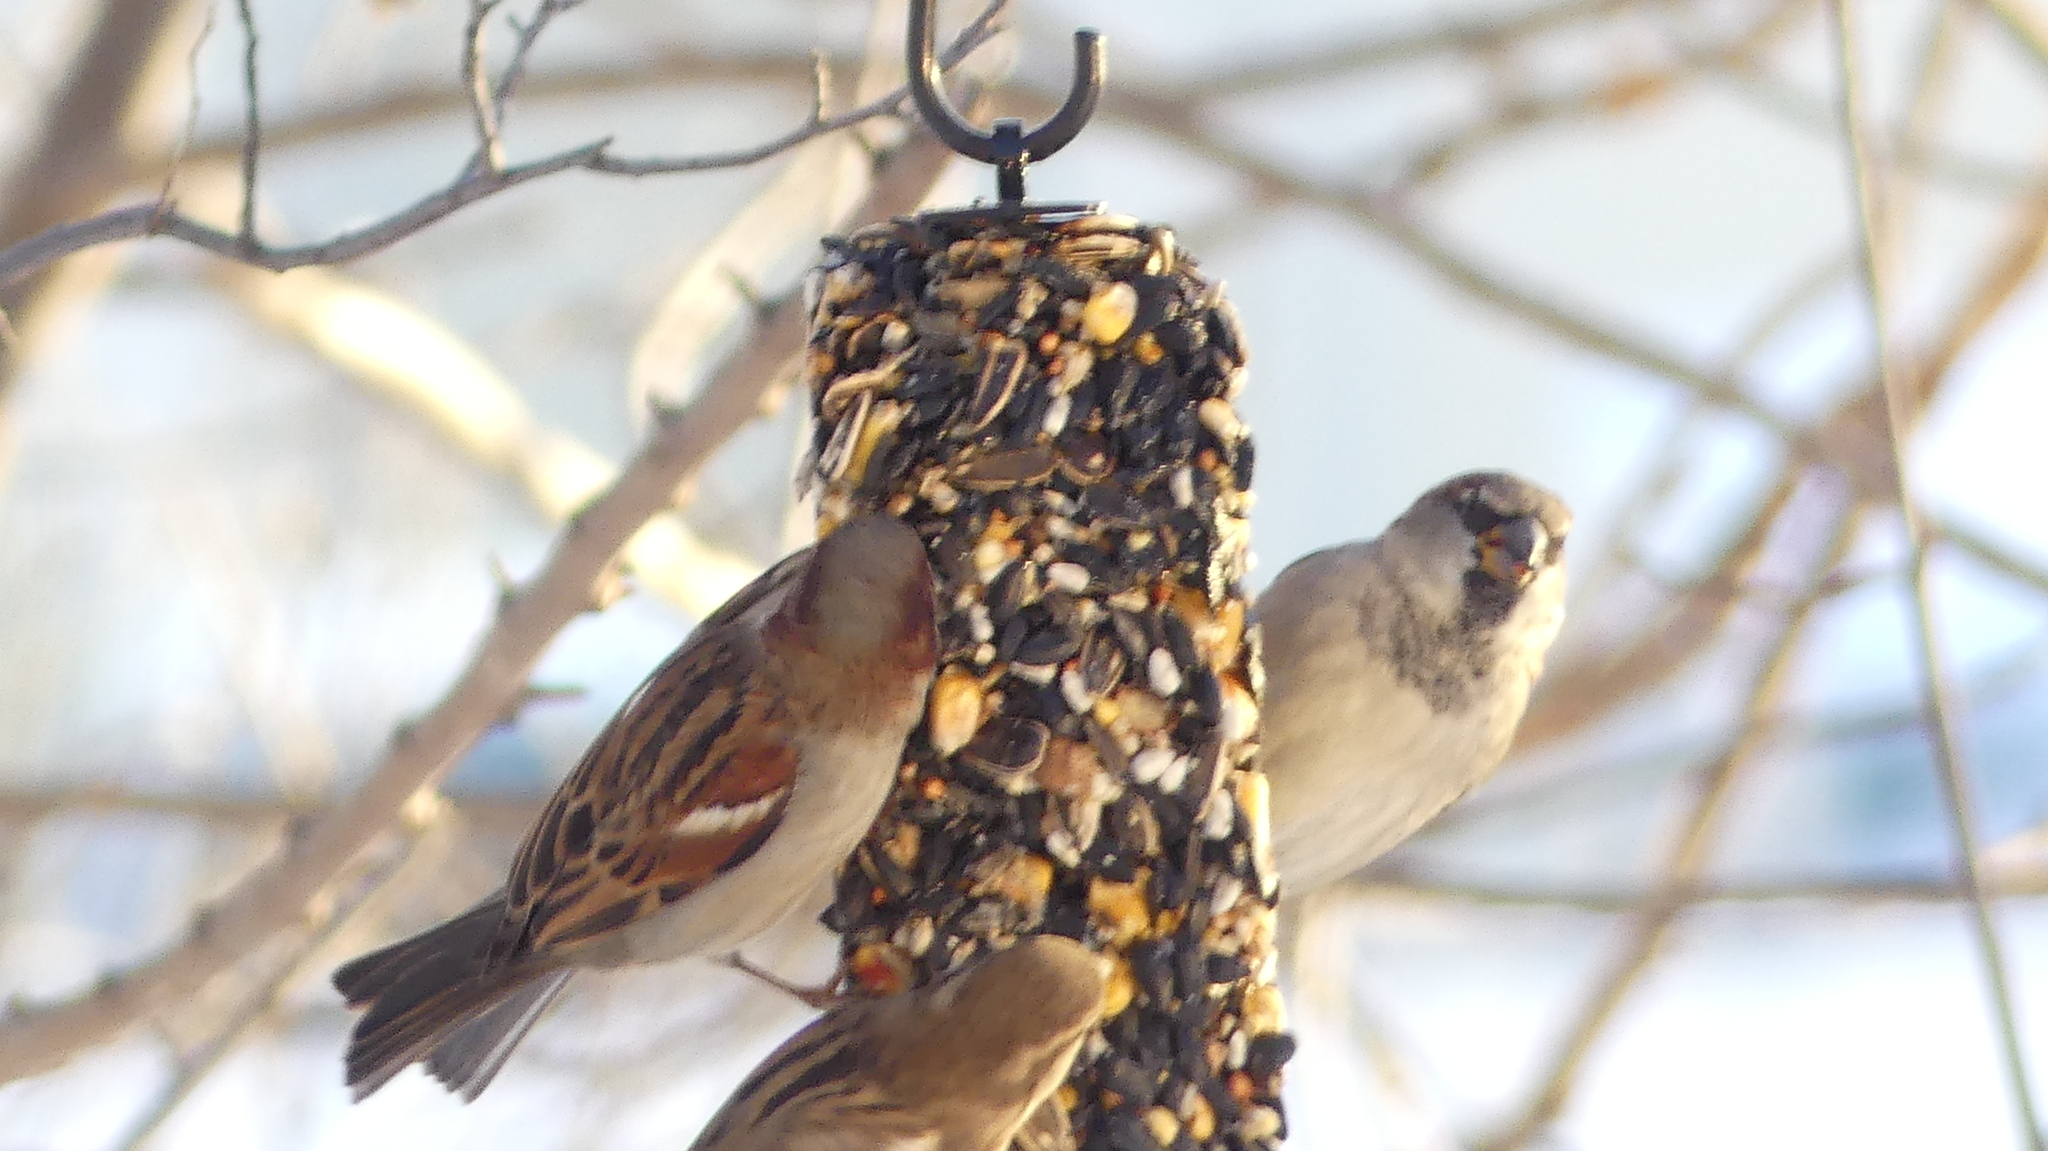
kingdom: Animalia
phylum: Chordata
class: Aves
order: Passeriformes
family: Passeridae
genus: Passer
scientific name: Passer domesticus
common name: House sparrow
